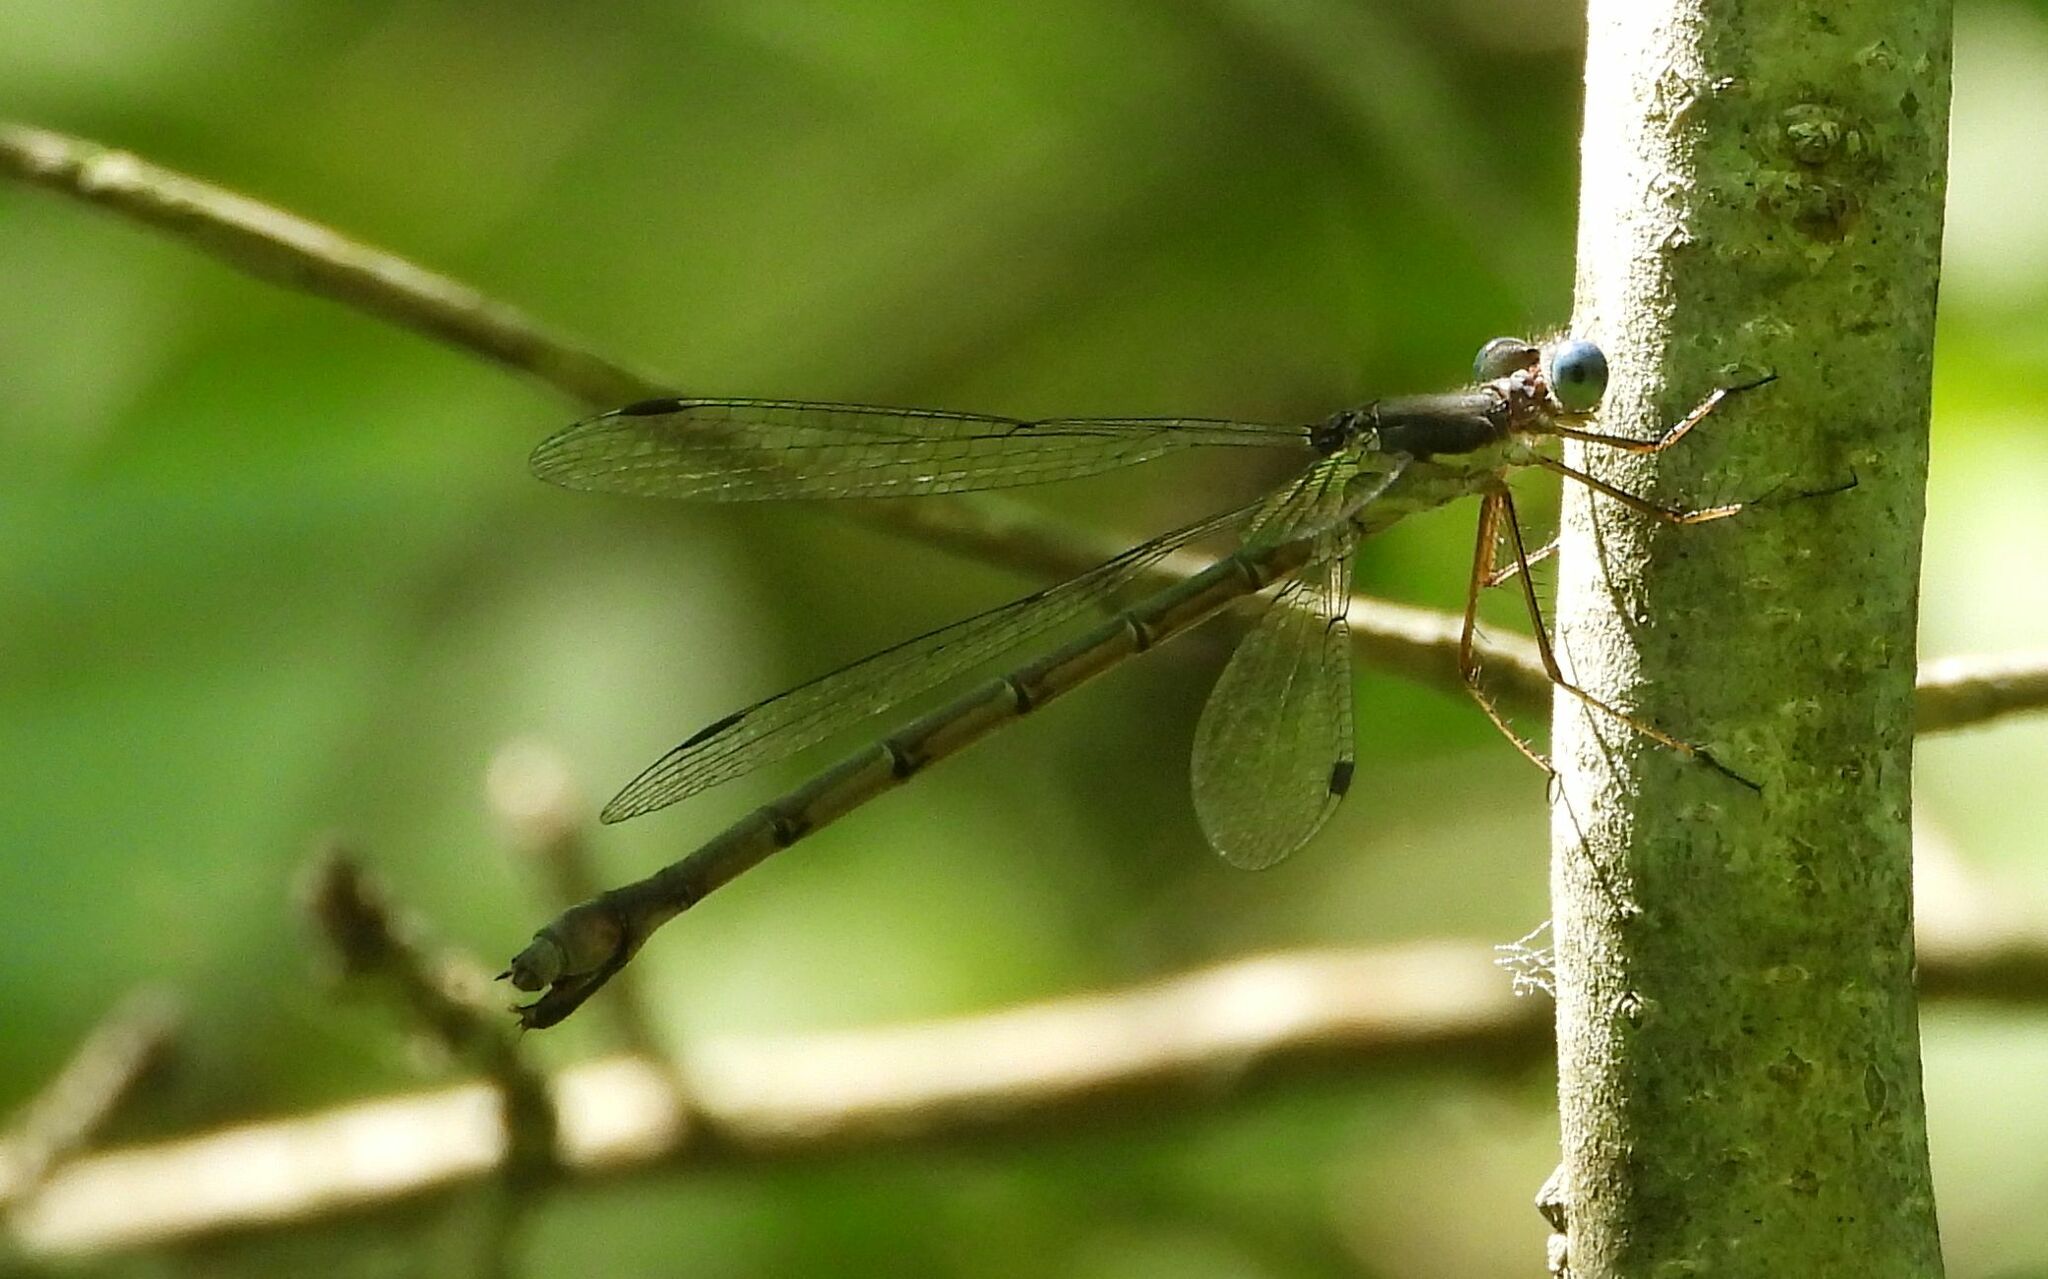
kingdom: Animalia
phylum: Arthropoda
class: Insecta
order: Odonata
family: Lestidae
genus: Lestes
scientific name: Lestes forcipatus
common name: Sweetflag spreadwing
